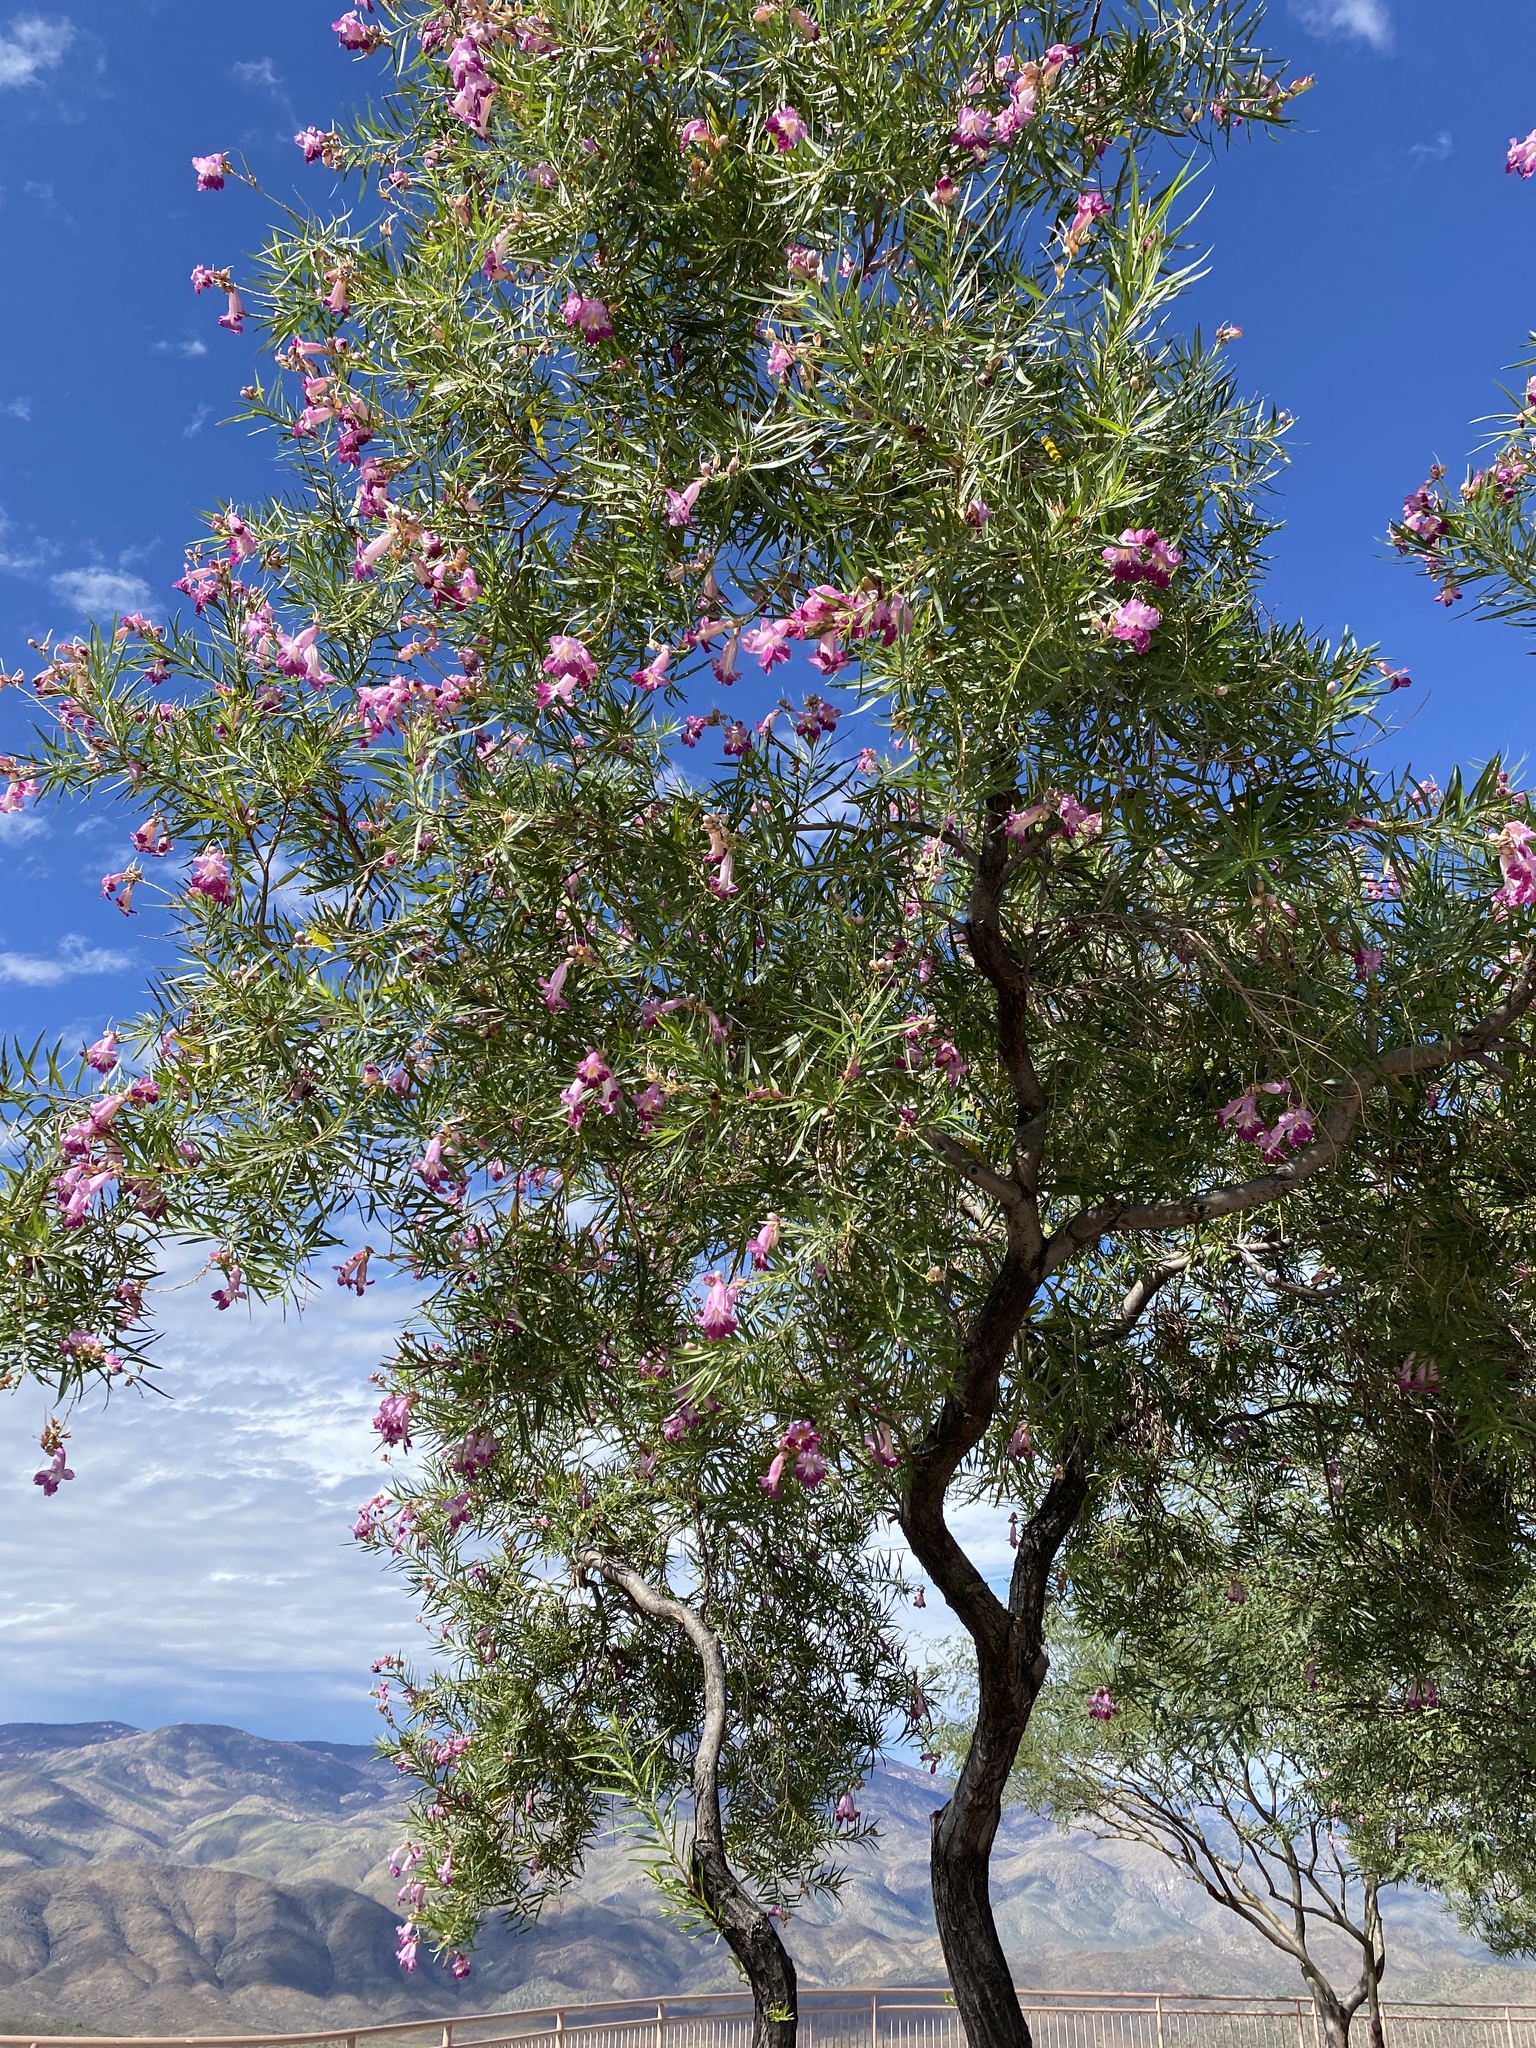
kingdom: Plantae
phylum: Tracheophyta
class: Magnoliopsida
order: Lamiales
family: Bignoniaceae
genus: Chilopsis
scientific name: Chilopsis linearis
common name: Desert-willow
